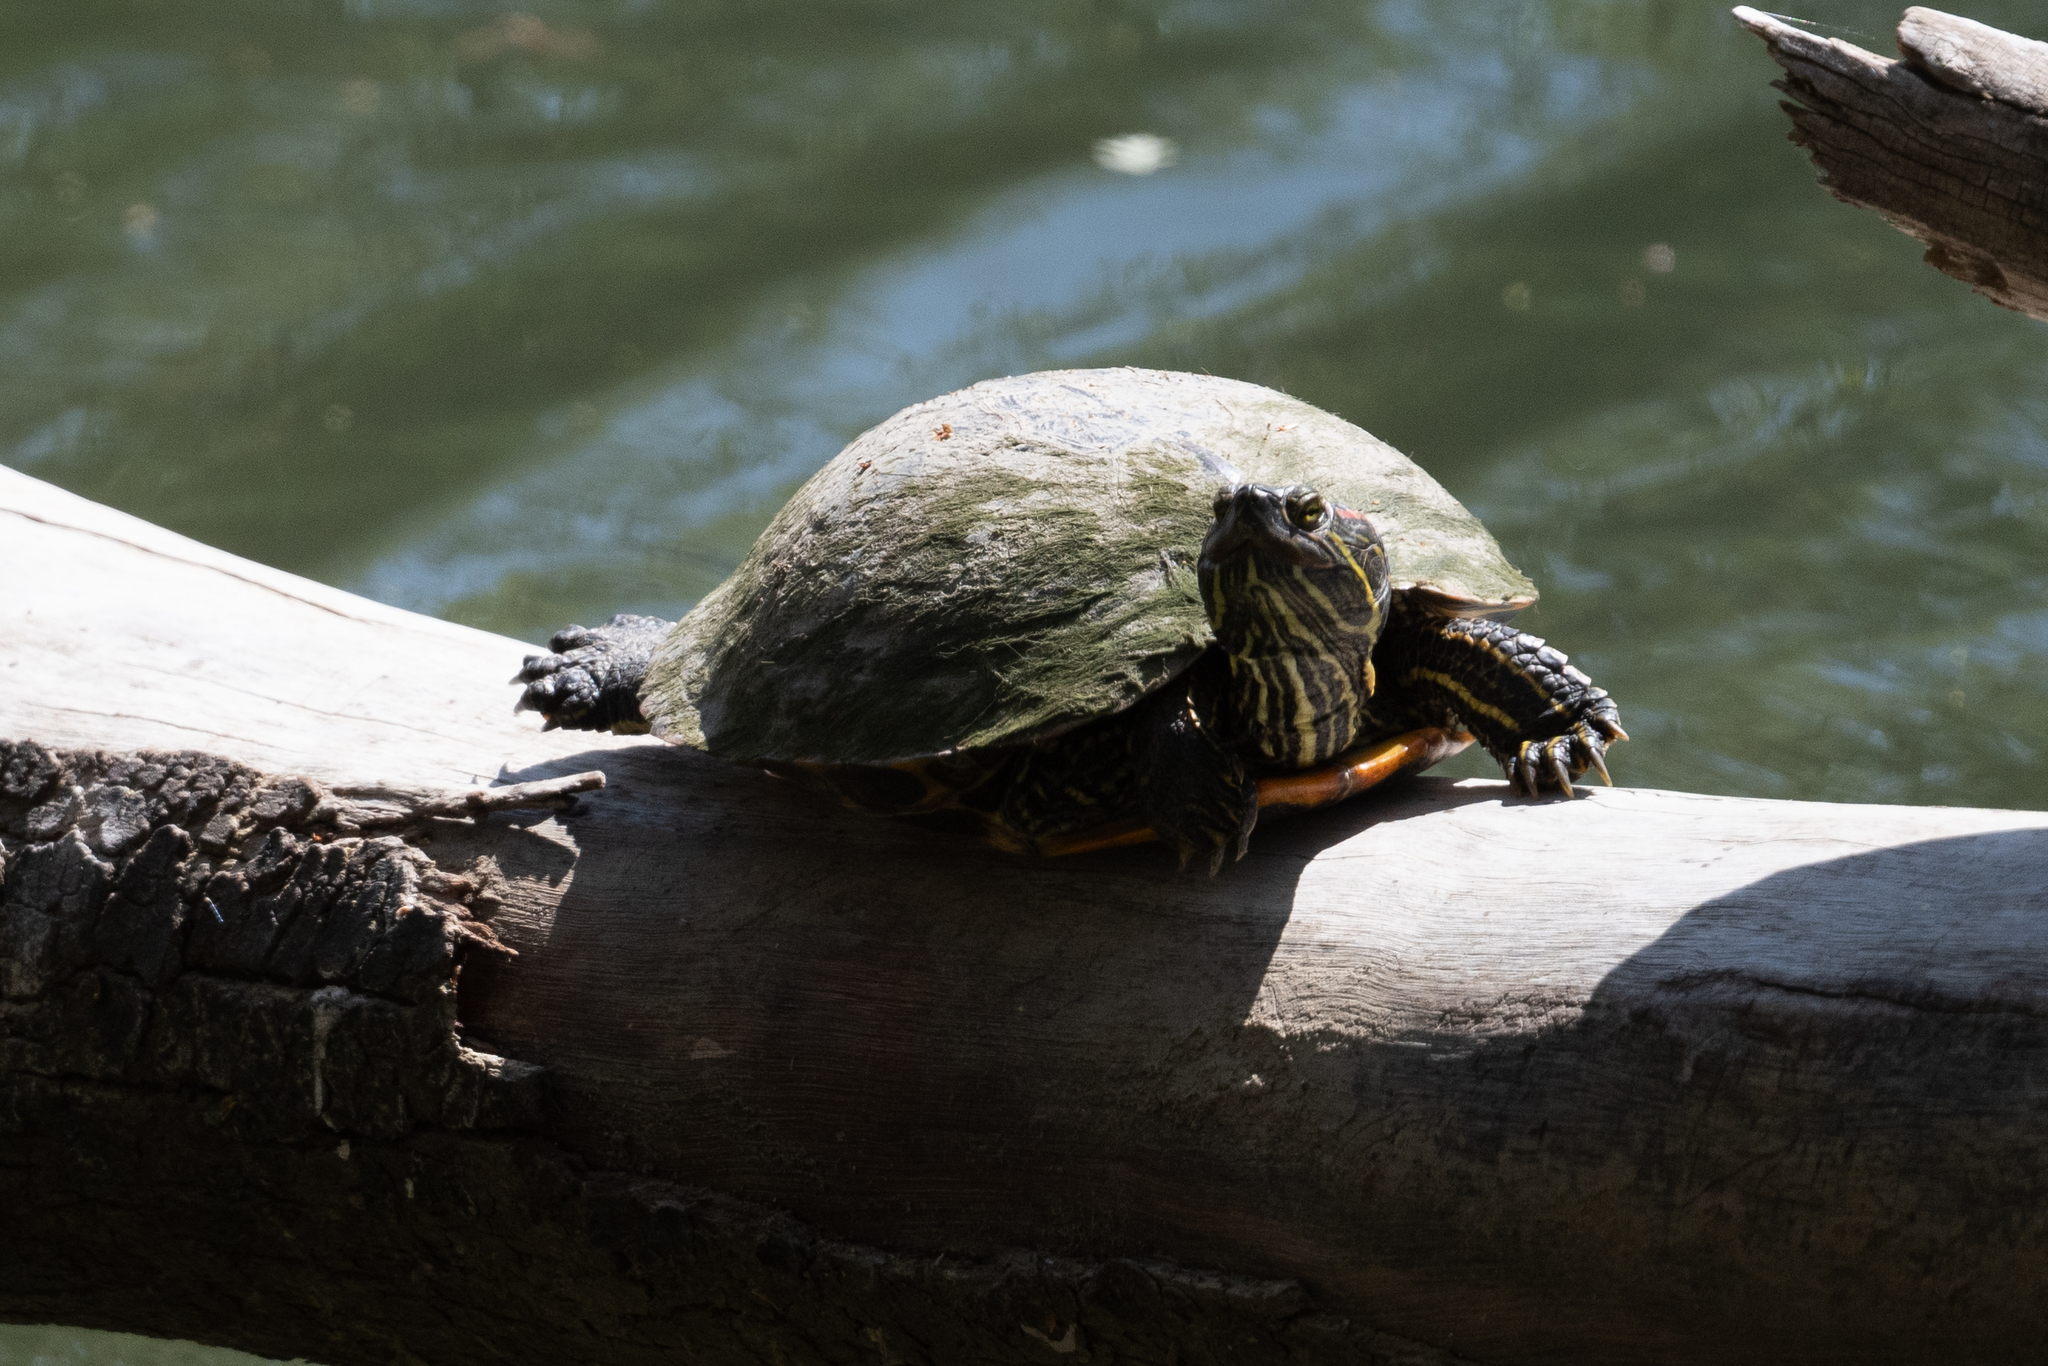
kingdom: Animalia
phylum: Chordata
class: Testudines
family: Emydidae
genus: Trachemys
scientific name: Trachemys scripta
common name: Slider
